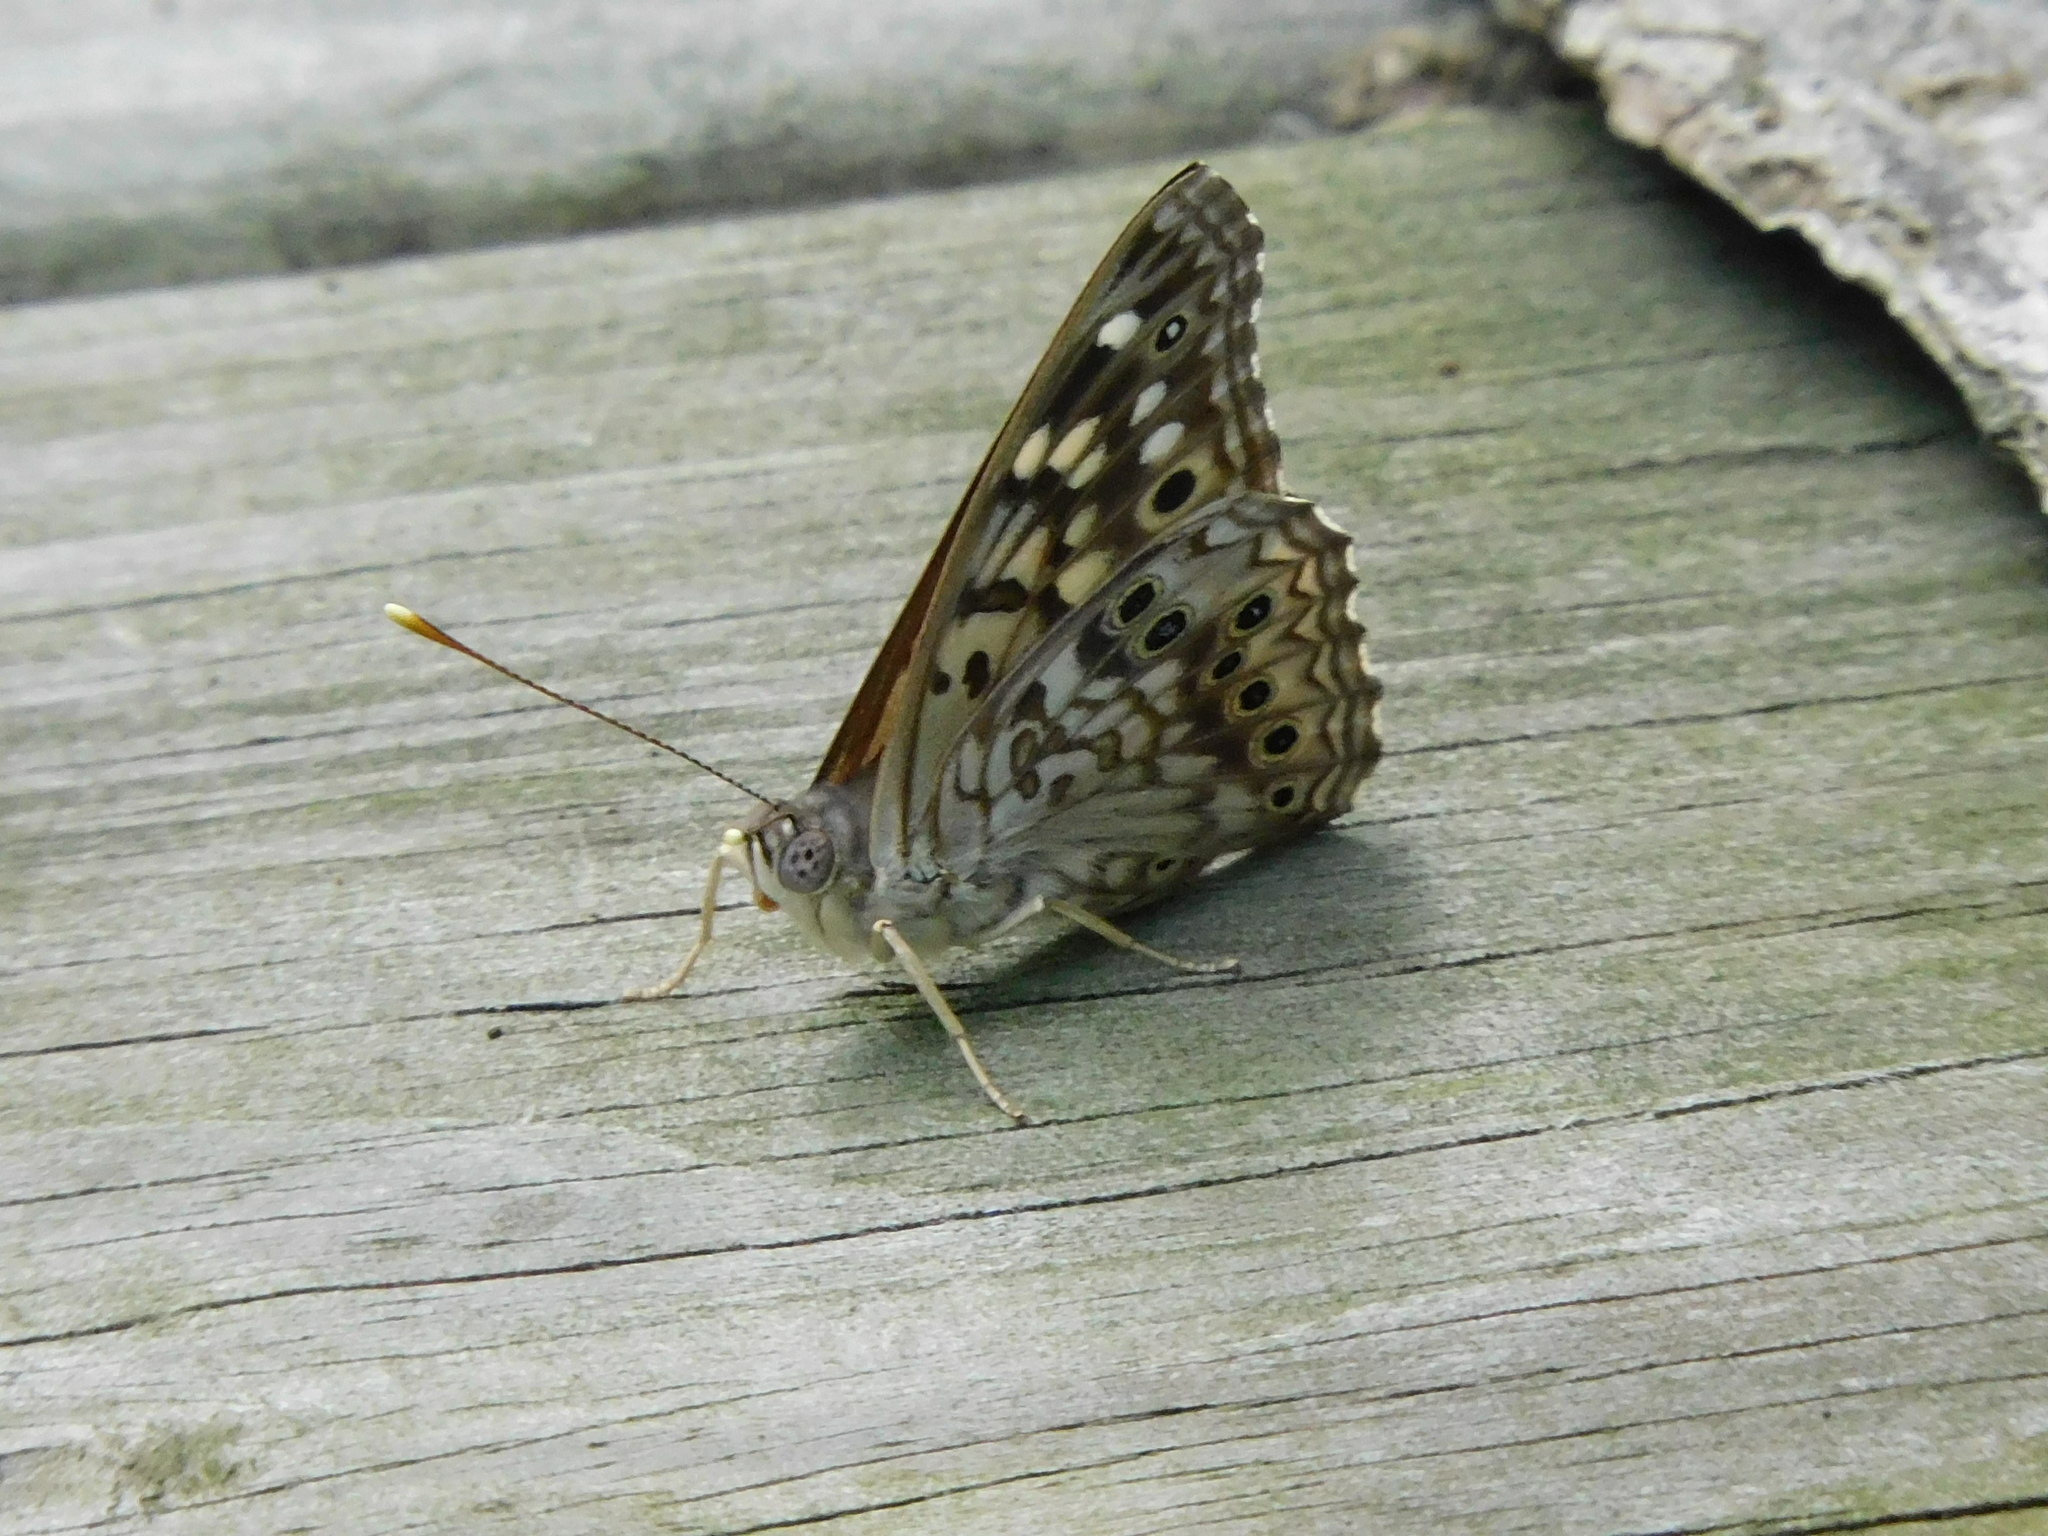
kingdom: Animalia
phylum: Arthropoda
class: Insecta
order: Lepidoptera
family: Nymphalidae
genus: Asterocampa
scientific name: Asterocampa celtis
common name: Hackberry emperor
